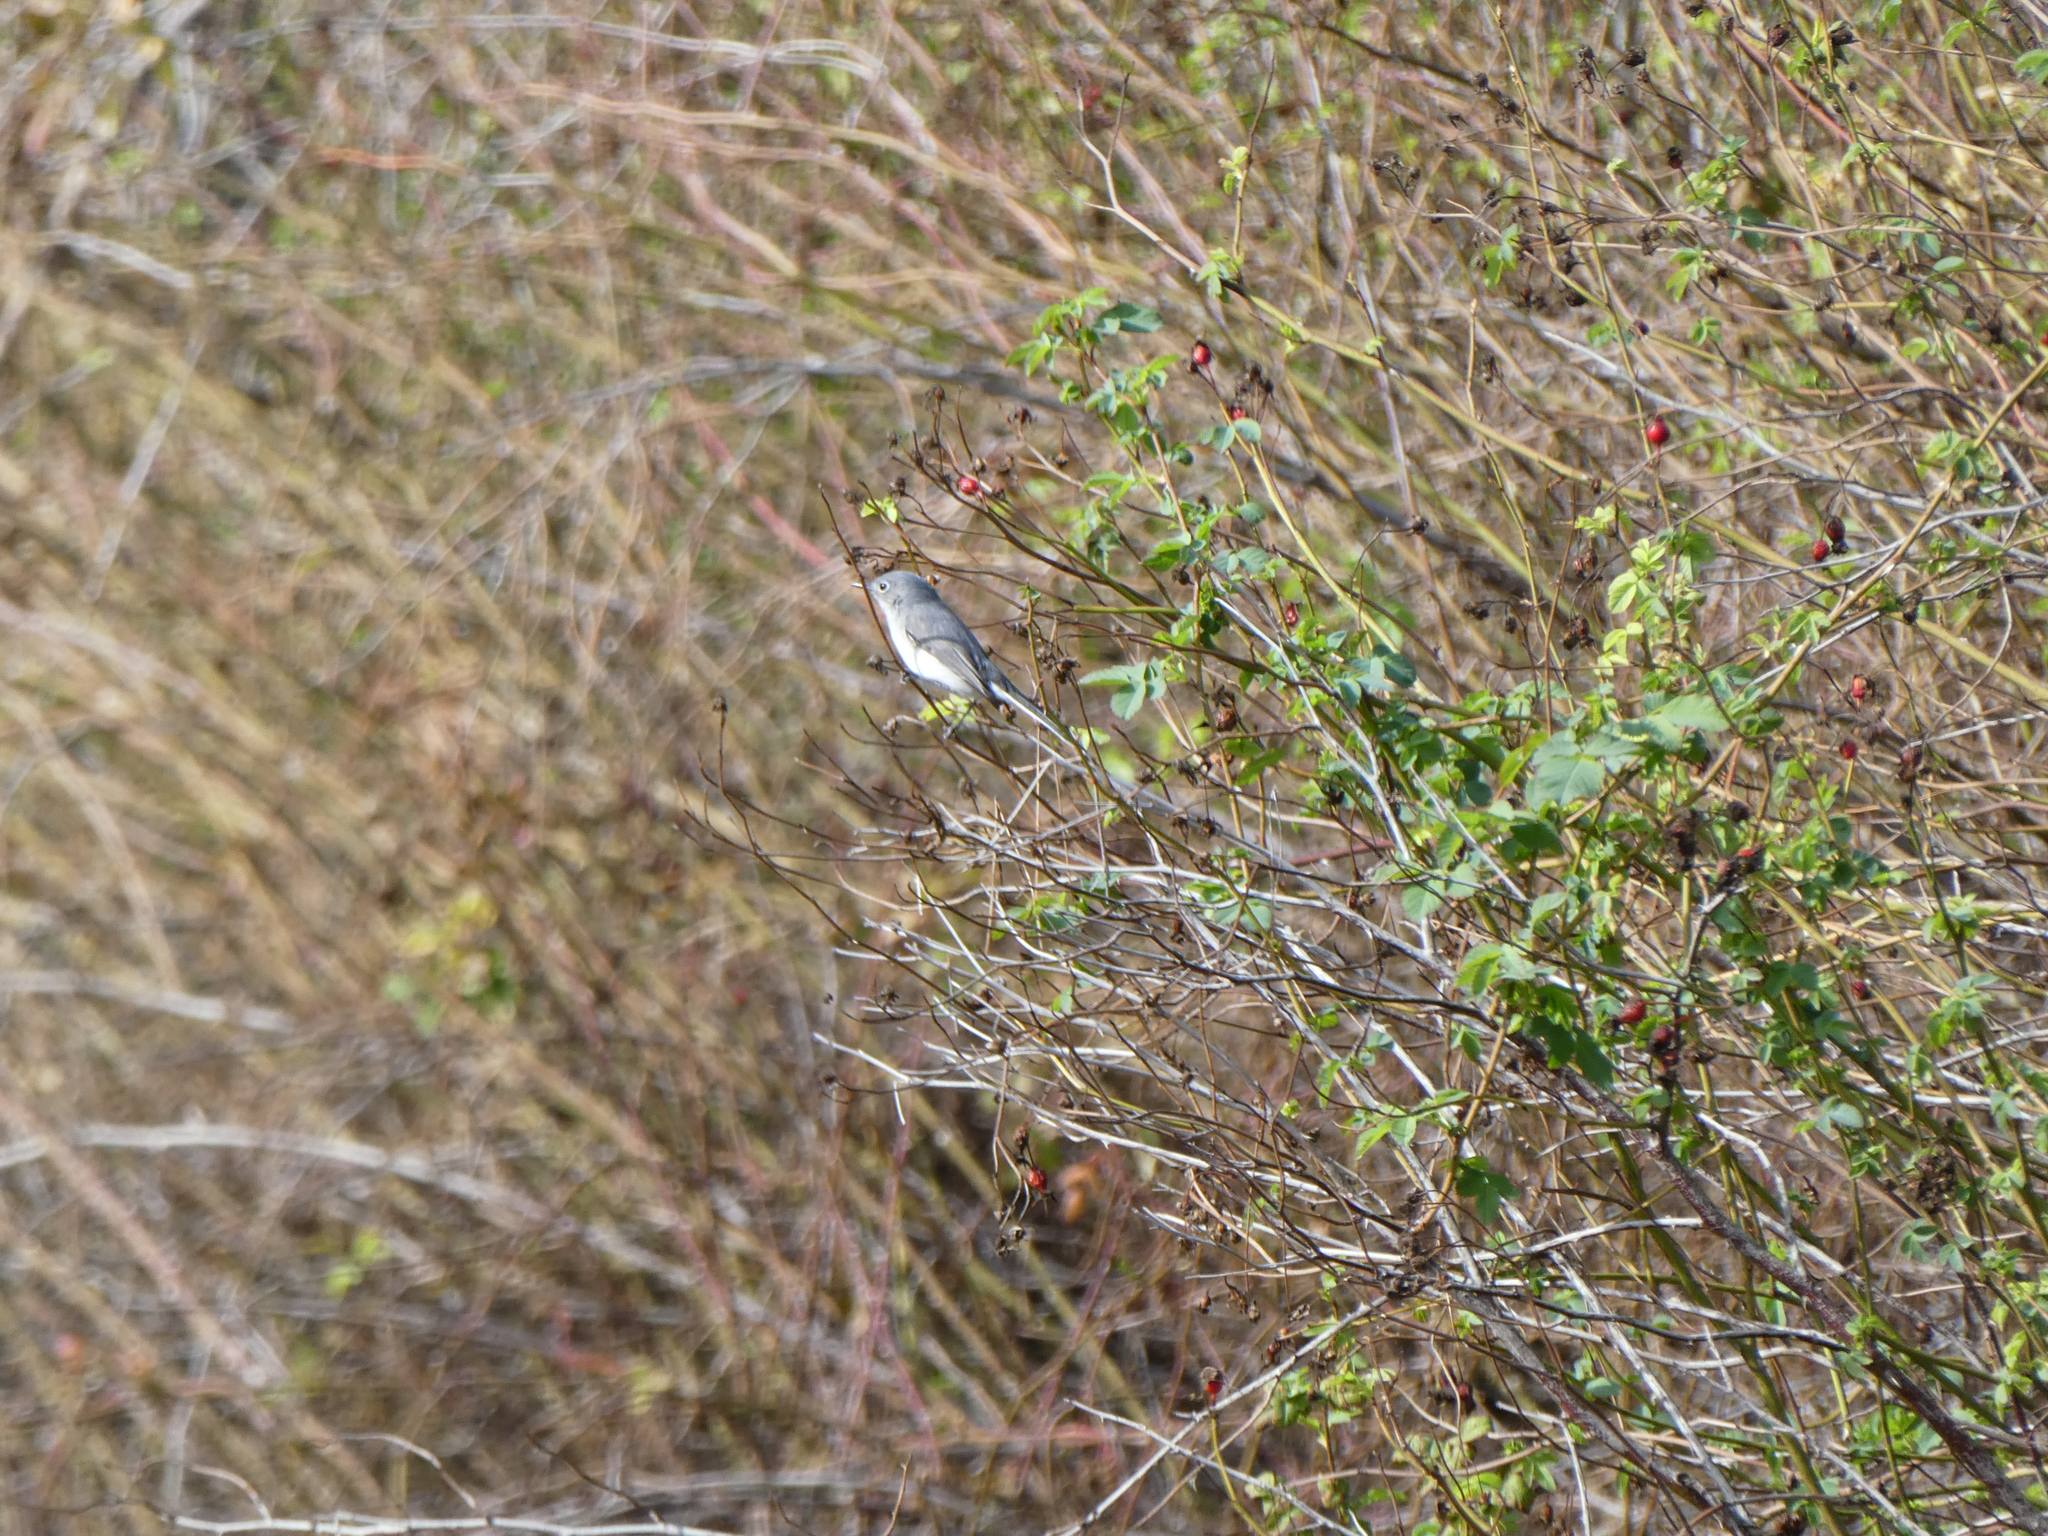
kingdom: Animalia
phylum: Chordata
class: Aves
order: Passeriformes
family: Polioptilidae
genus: Polioptila
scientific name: Polioptila caerulea
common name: Blue-gray gnatcatcher
